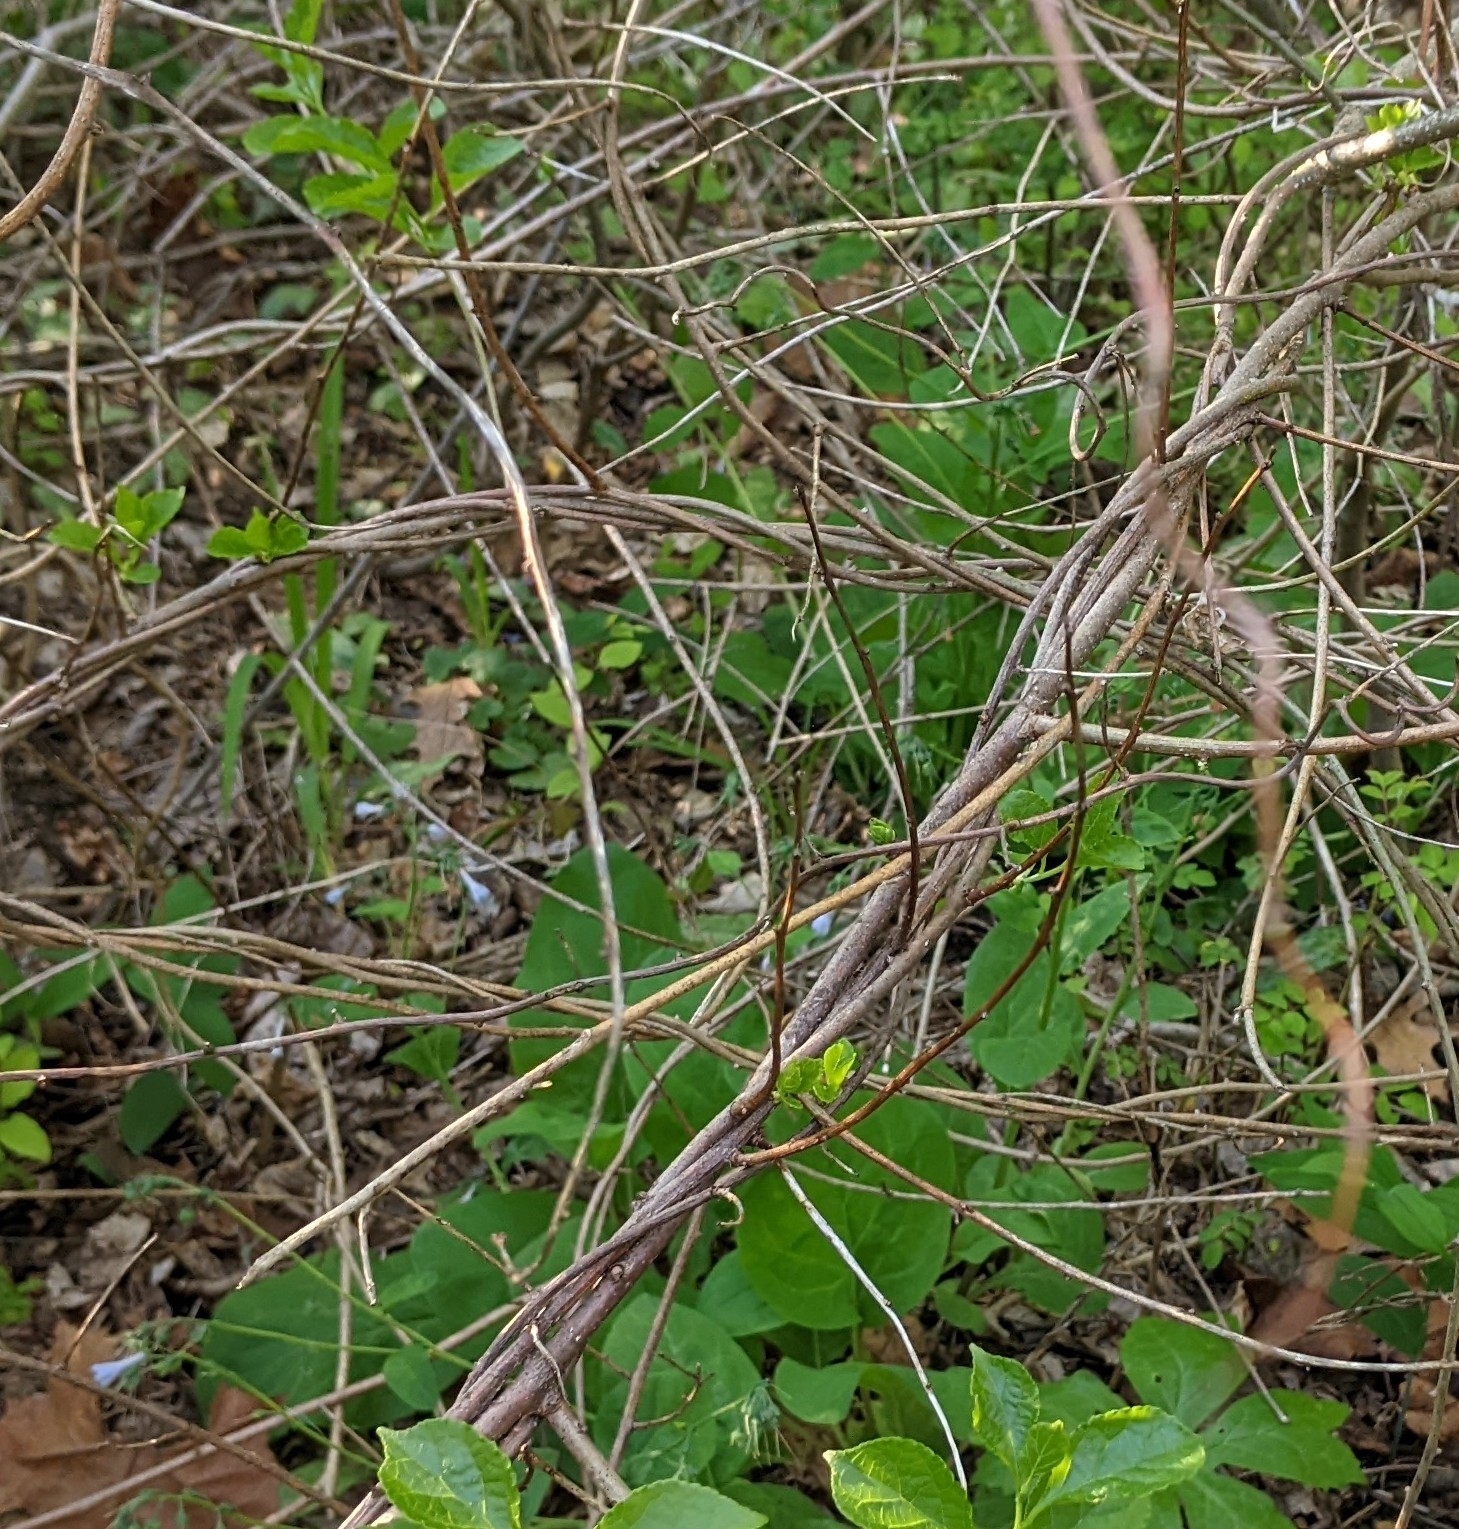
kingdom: Plantae
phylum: Tracheophyta
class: Magnoliopsida
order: Boraginales
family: Boraginaceae
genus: Mertensia
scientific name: Mertensia virginica
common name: Virginia bluebells
